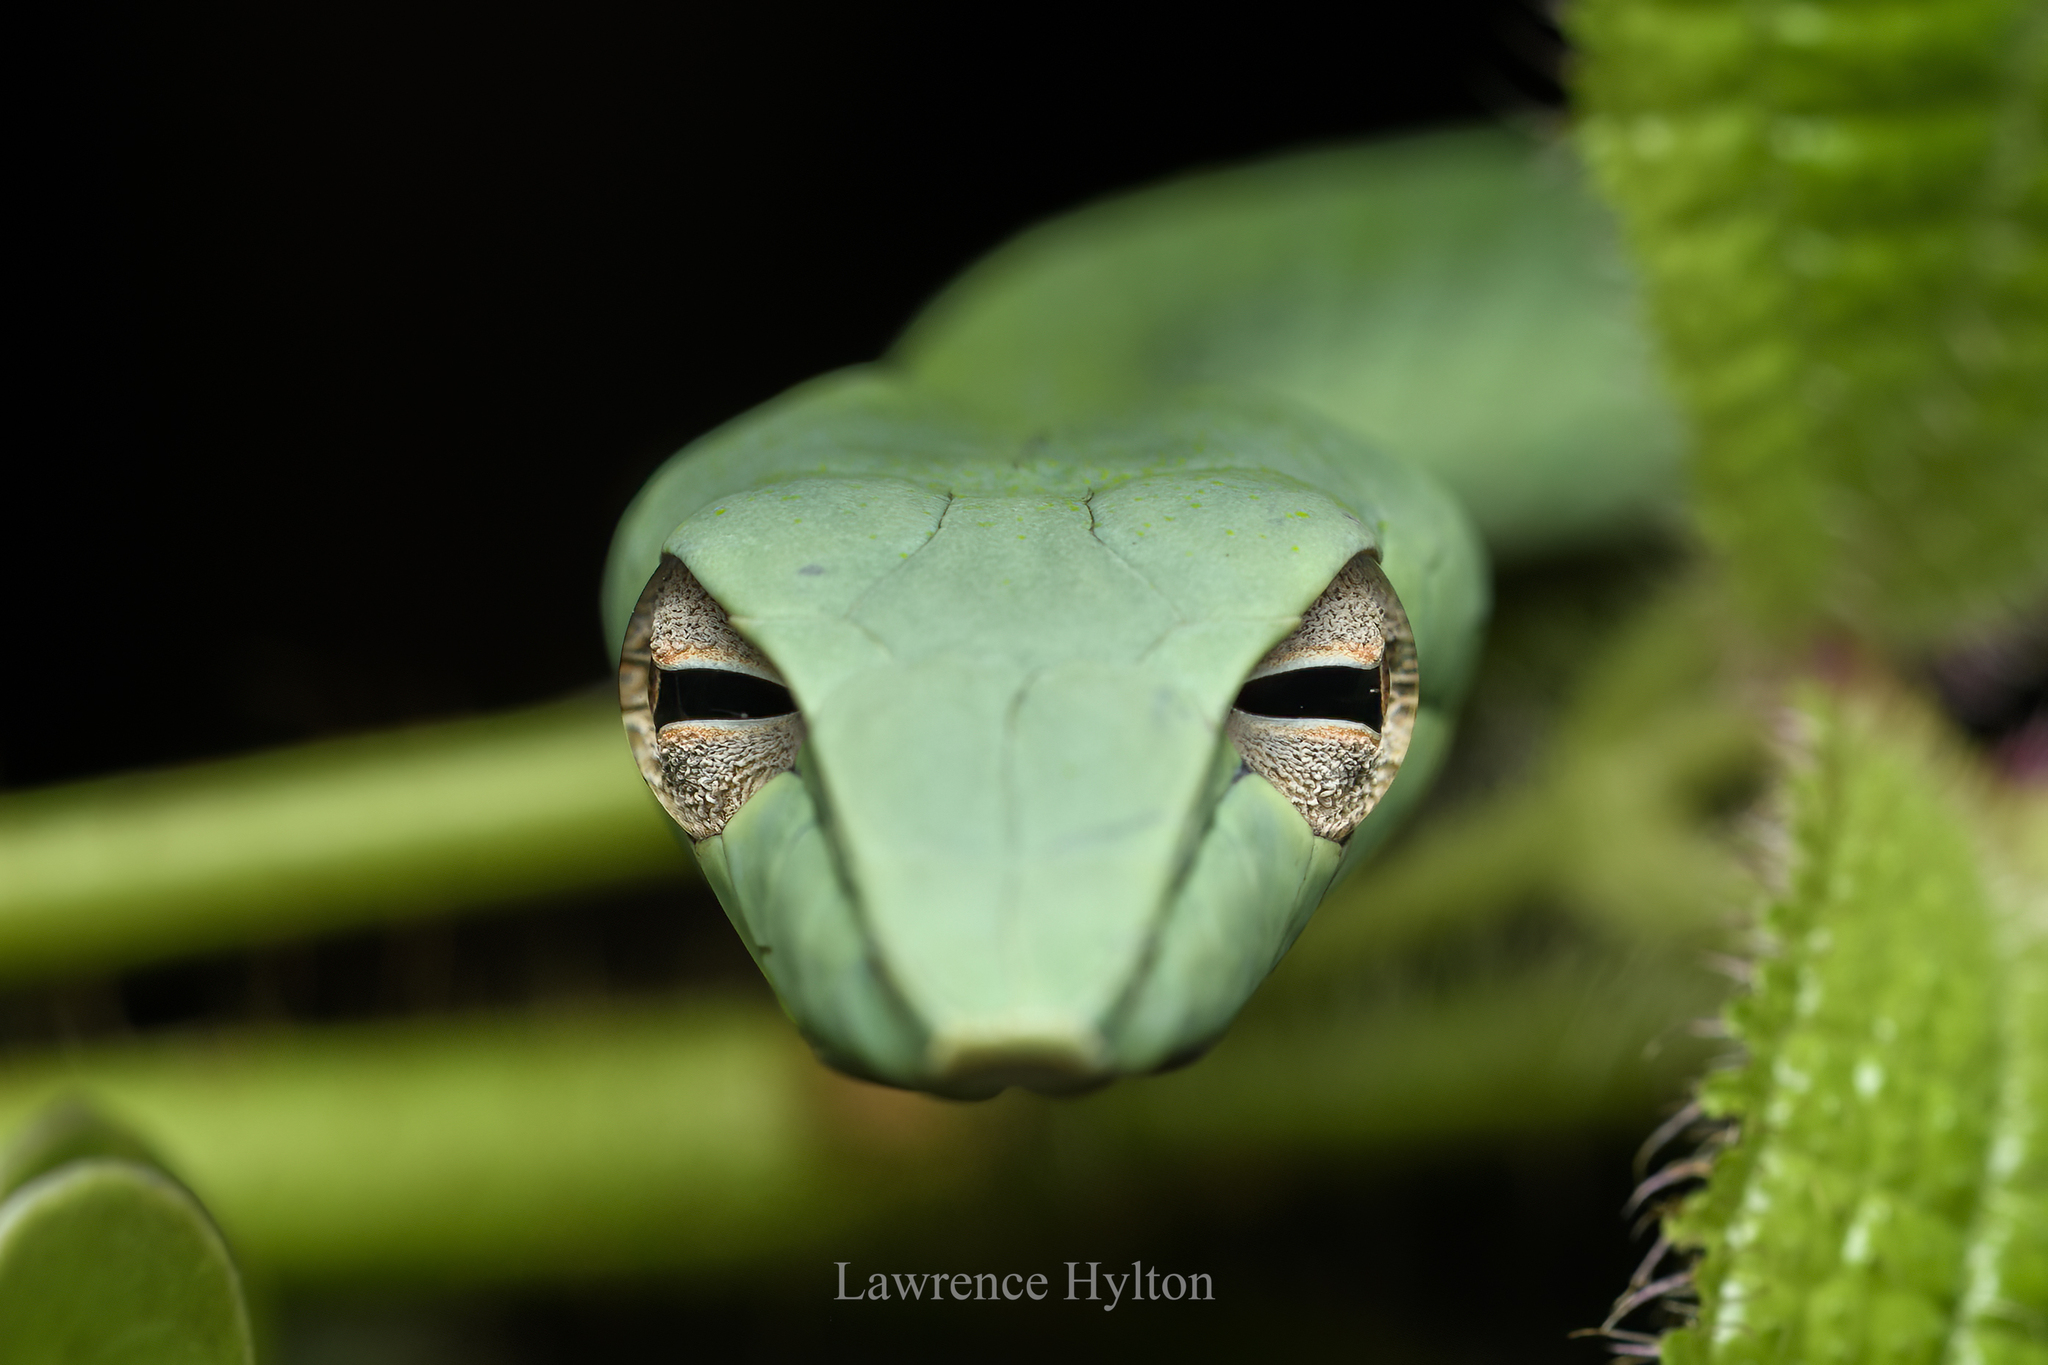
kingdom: Animalia
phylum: Chordata
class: Squamata
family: Colubridae
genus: Ahaetulla
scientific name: Ahaetulla prasina
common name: Oriental whip snake
